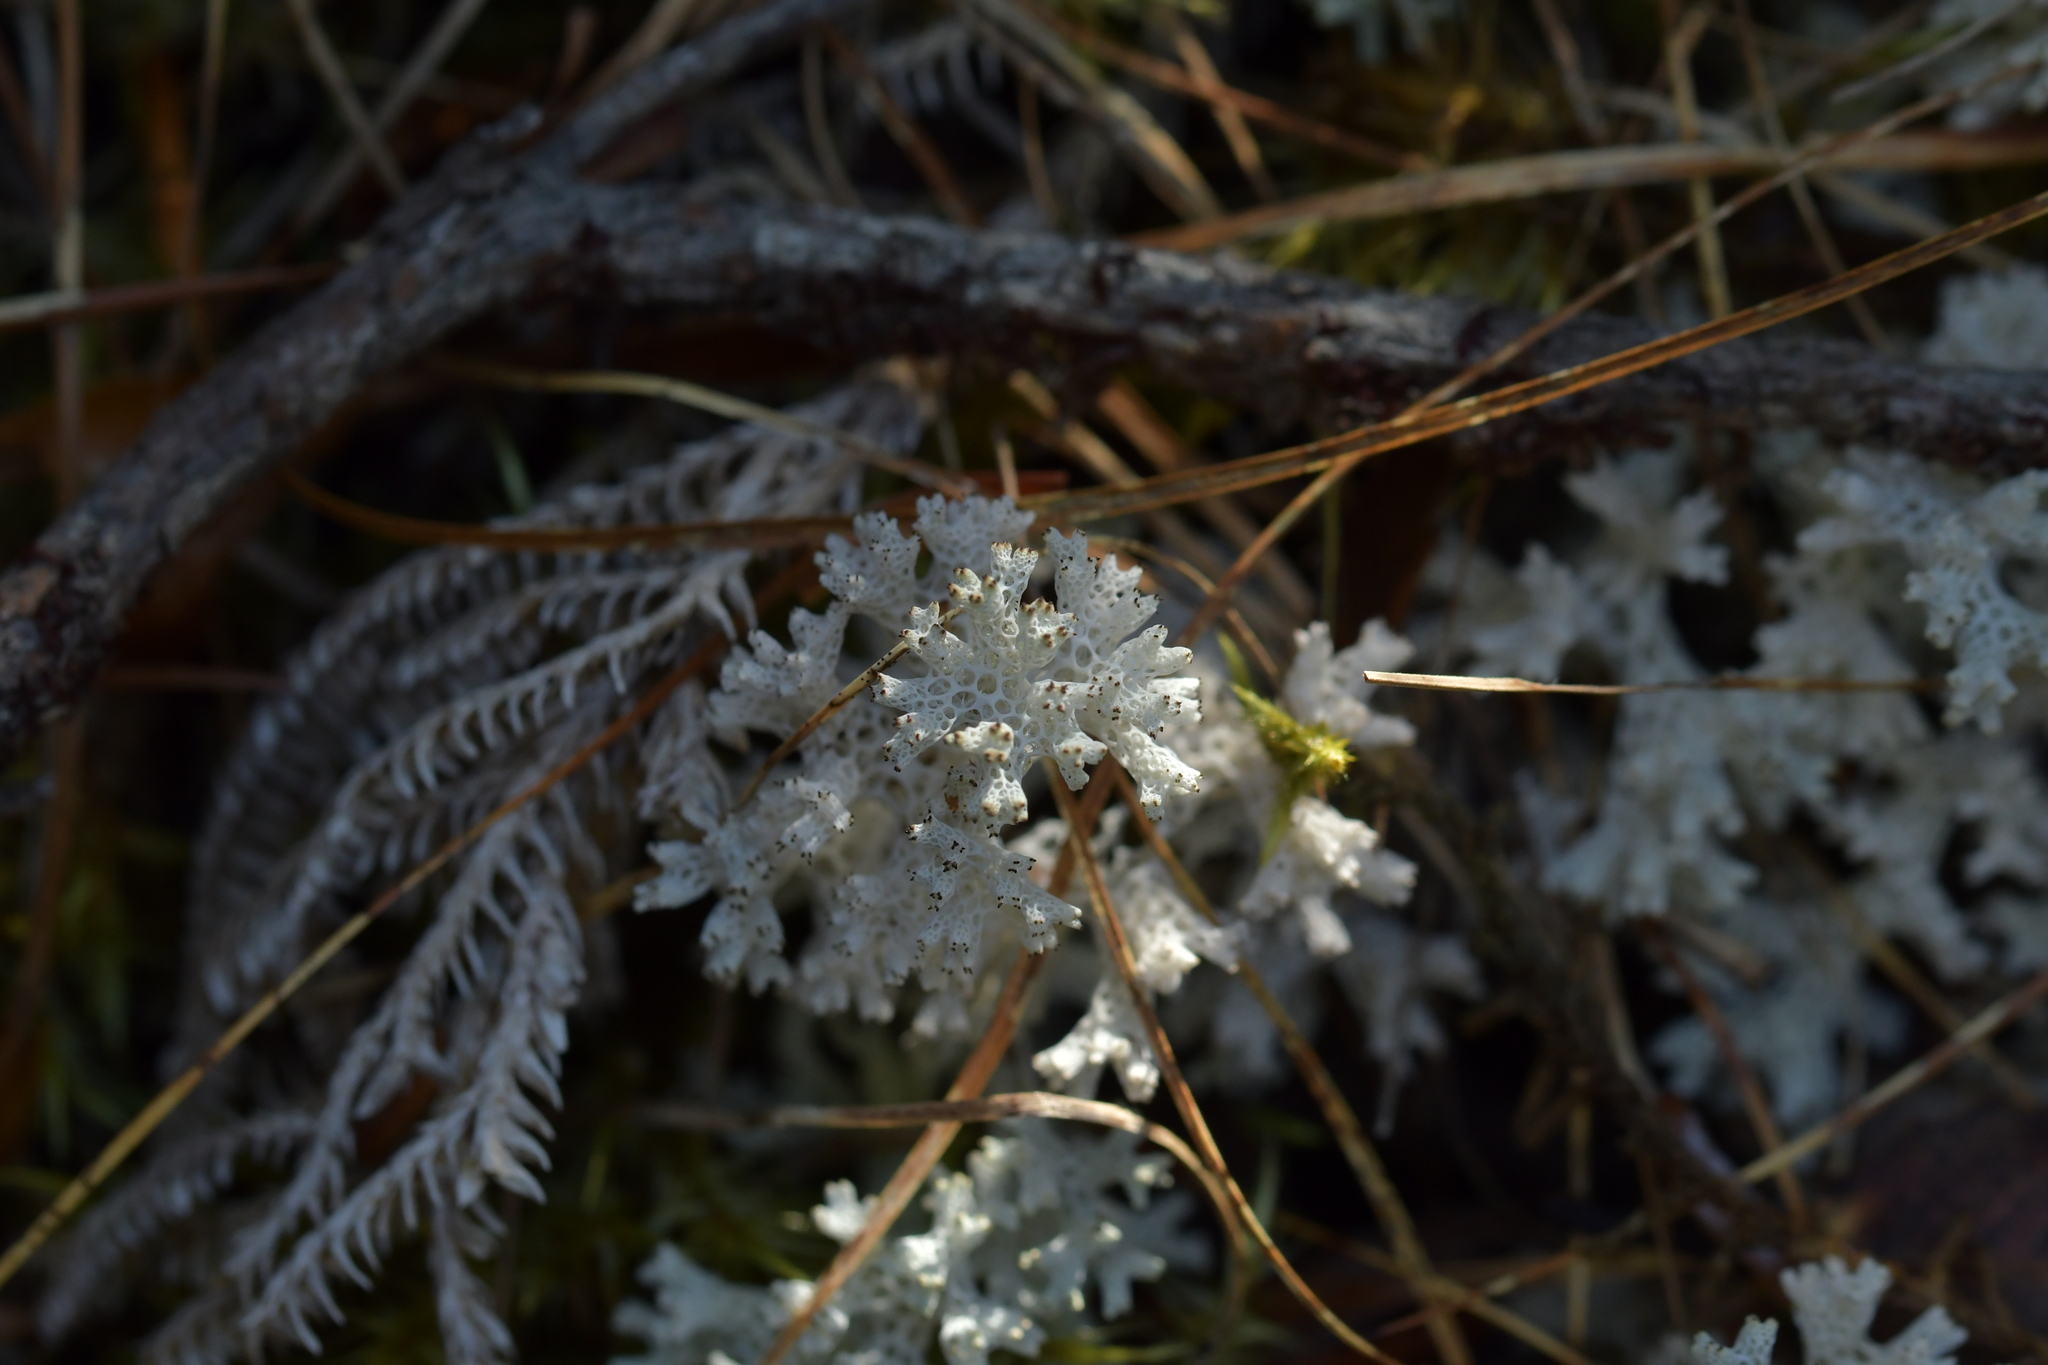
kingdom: Fungi
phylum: Ascomycota
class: Lecanoromycetes
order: Lecanorales
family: Cladoniaceae
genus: Pulchrocladia
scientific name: Pulchrocladia retipora
